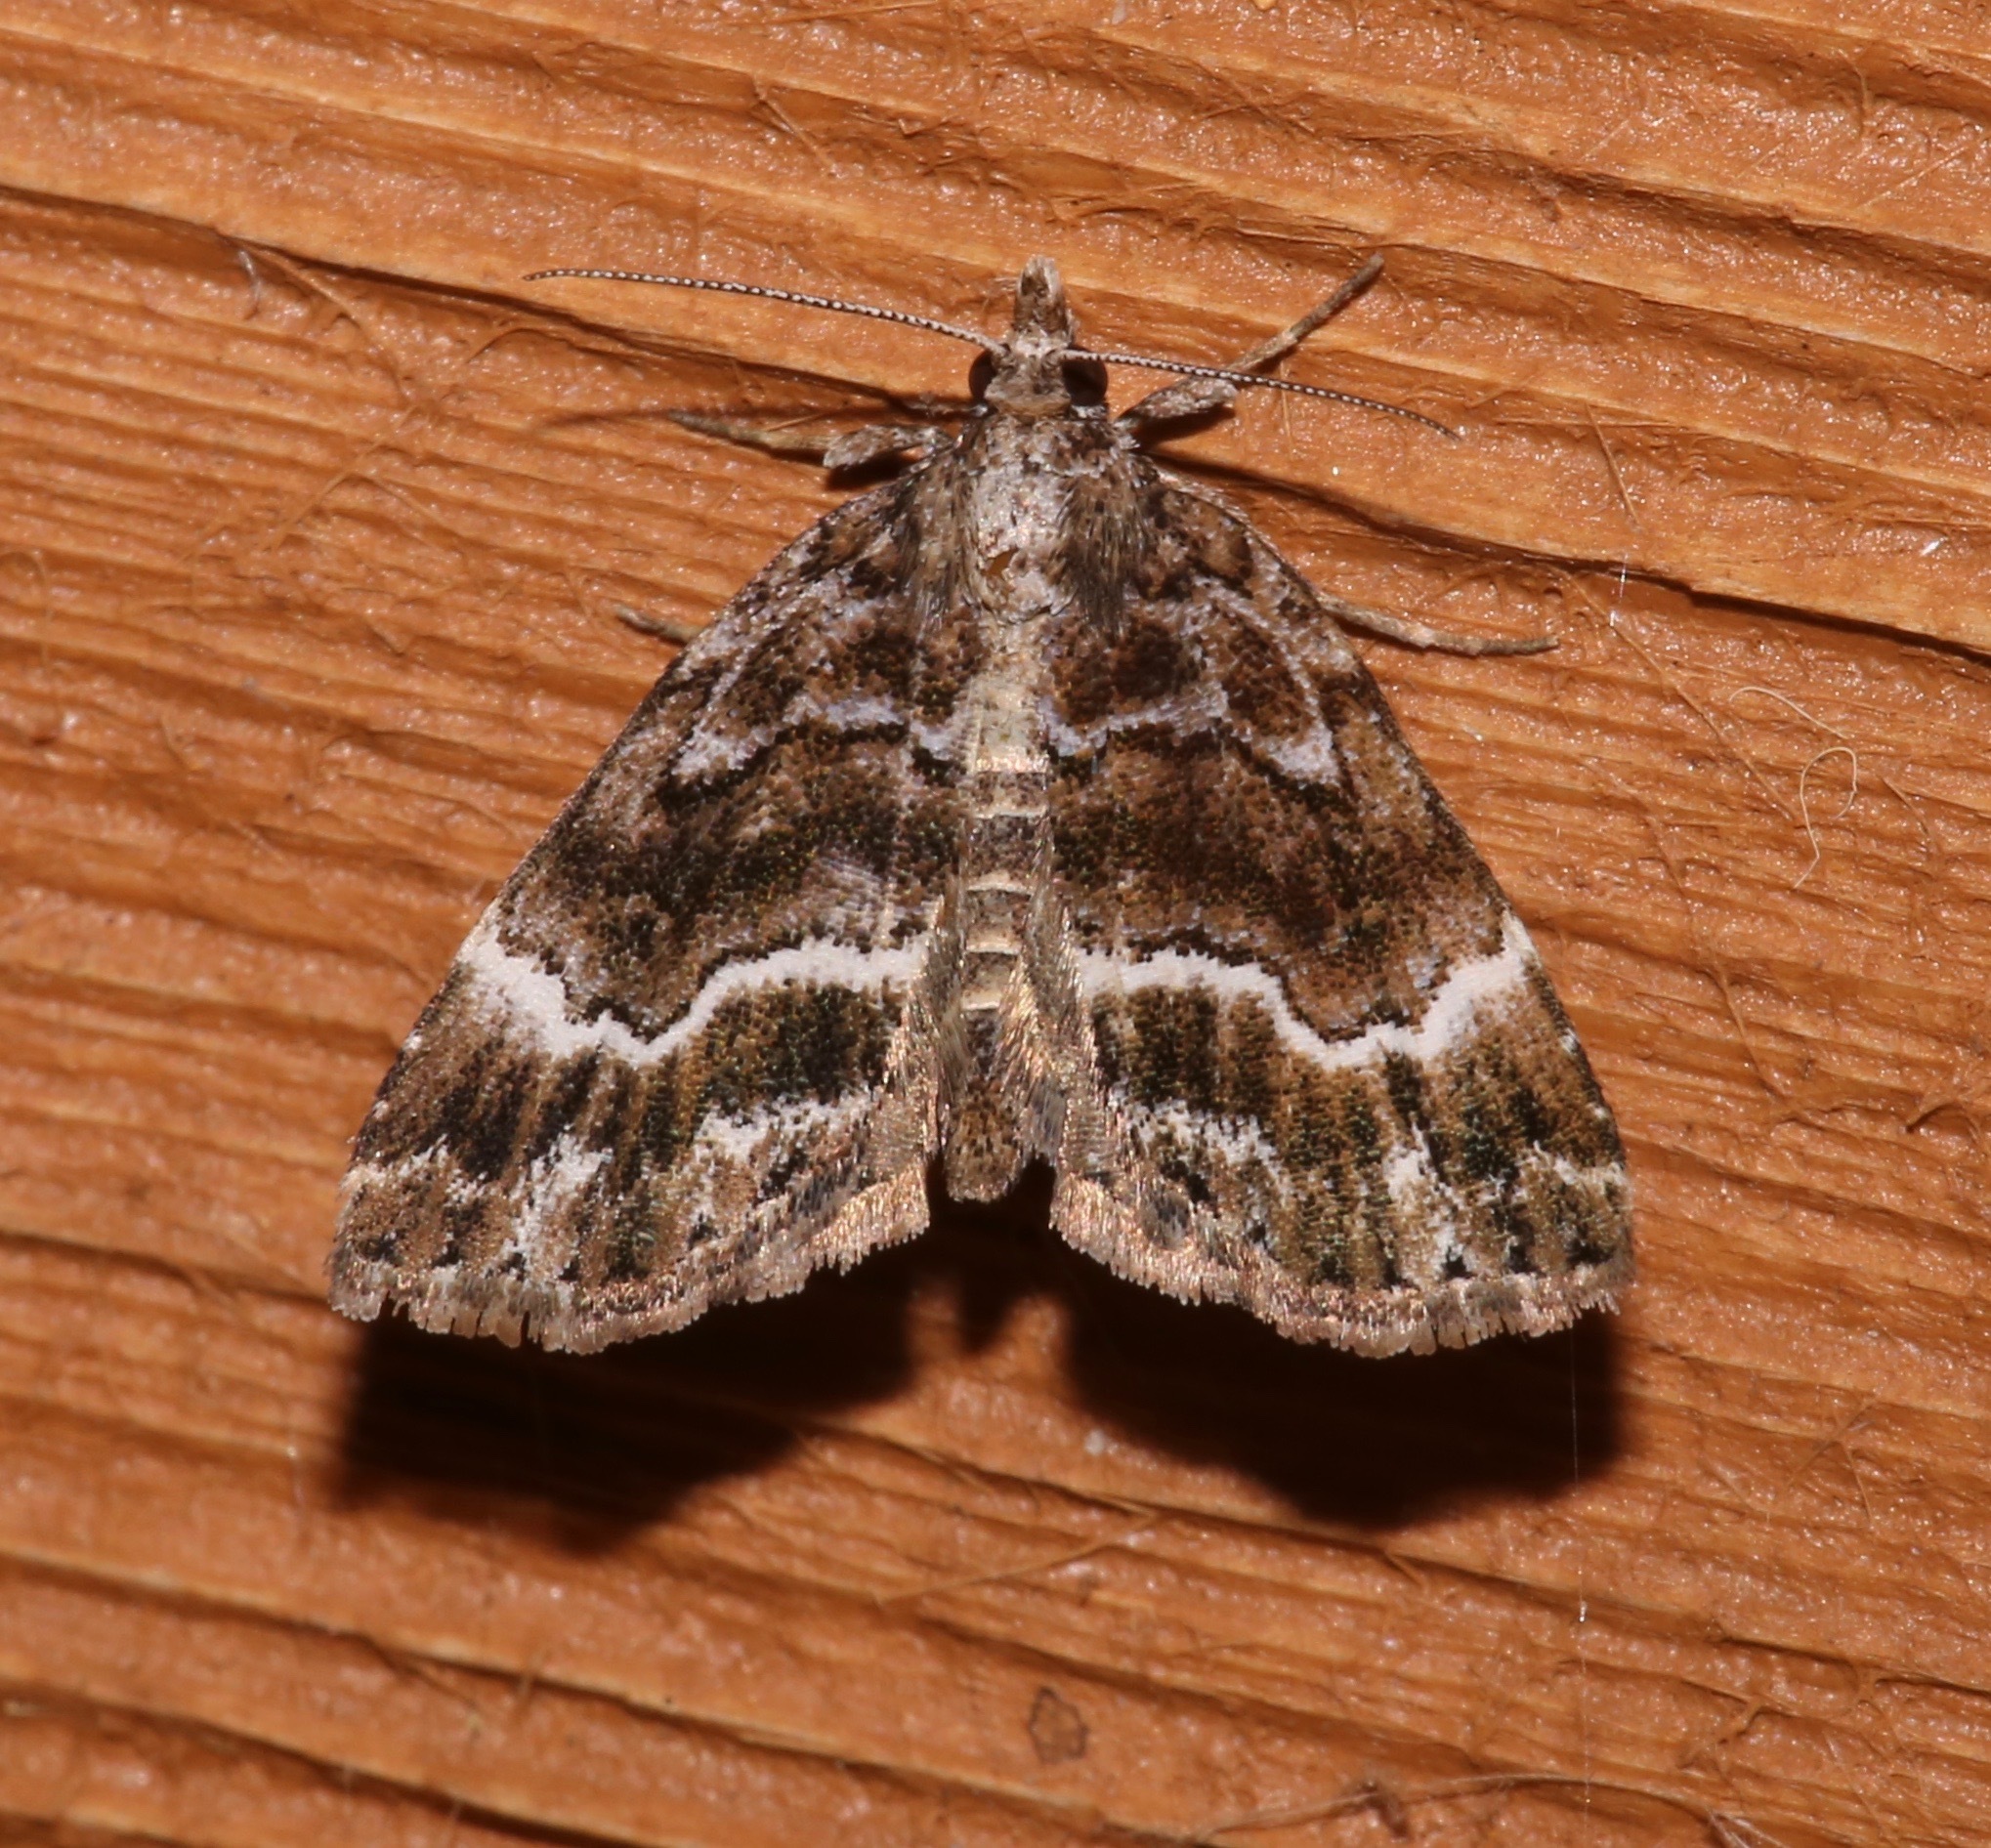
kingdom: Animalia
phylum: Arthropoda
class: Insecta
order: Lepidoptera
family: Erebidae
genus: Cutina
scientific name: Cutina arcuata
